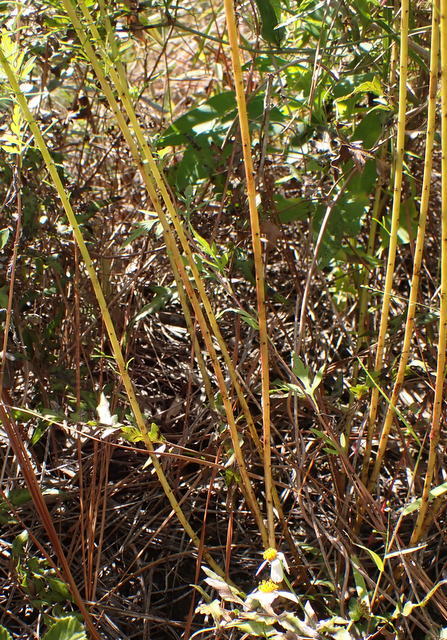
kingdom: Plantae
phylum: Tracheophyta
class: Magnoliopsida
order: Fabales
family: Fabaceae
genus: Dalea
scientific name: Dalea pinnata
